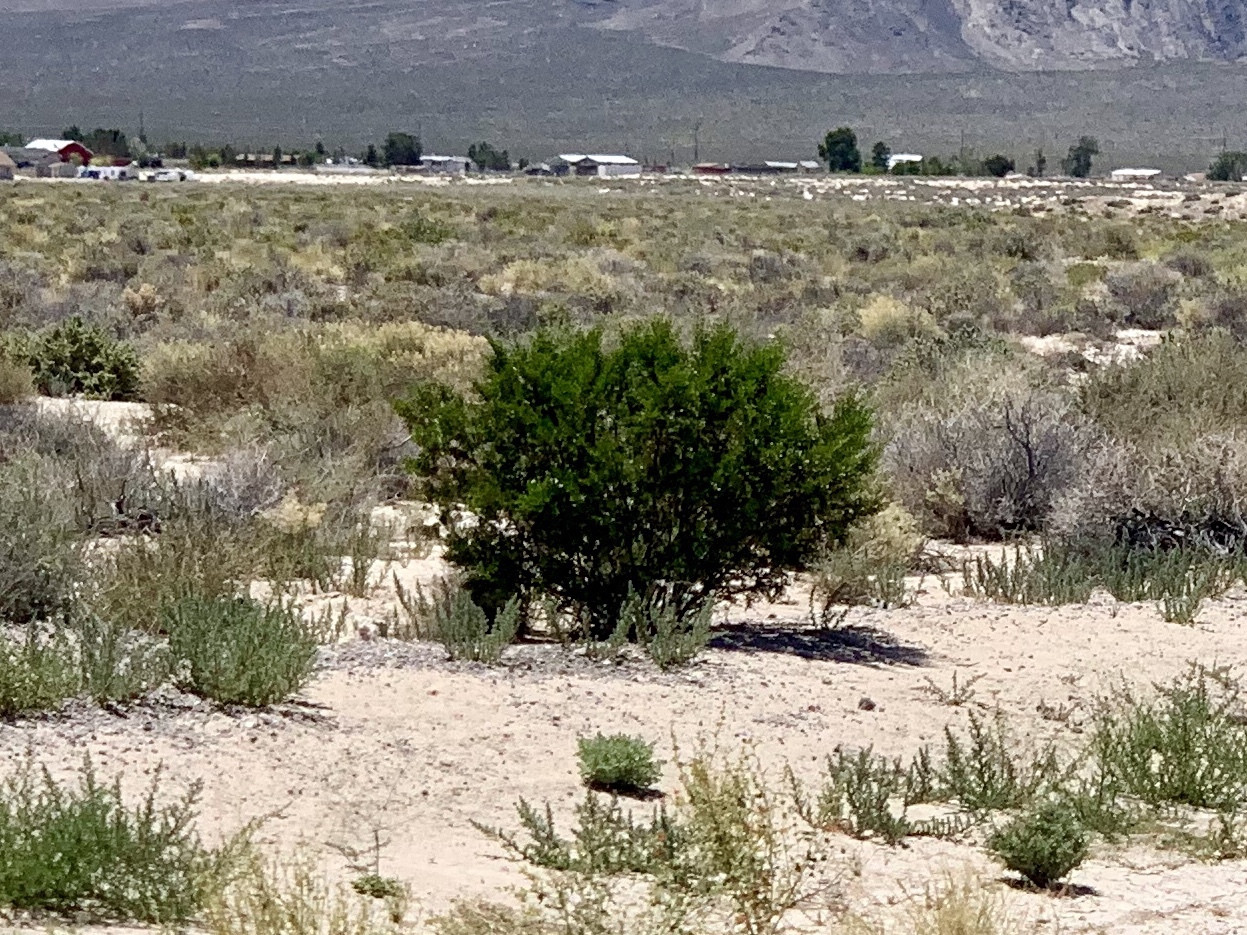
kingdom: Plantae
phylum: Tracheophyta
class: Magnoliopsida
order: Zygophyllales
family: Zygophyllaceae
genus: Larrea
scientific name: Larrea tridentata
